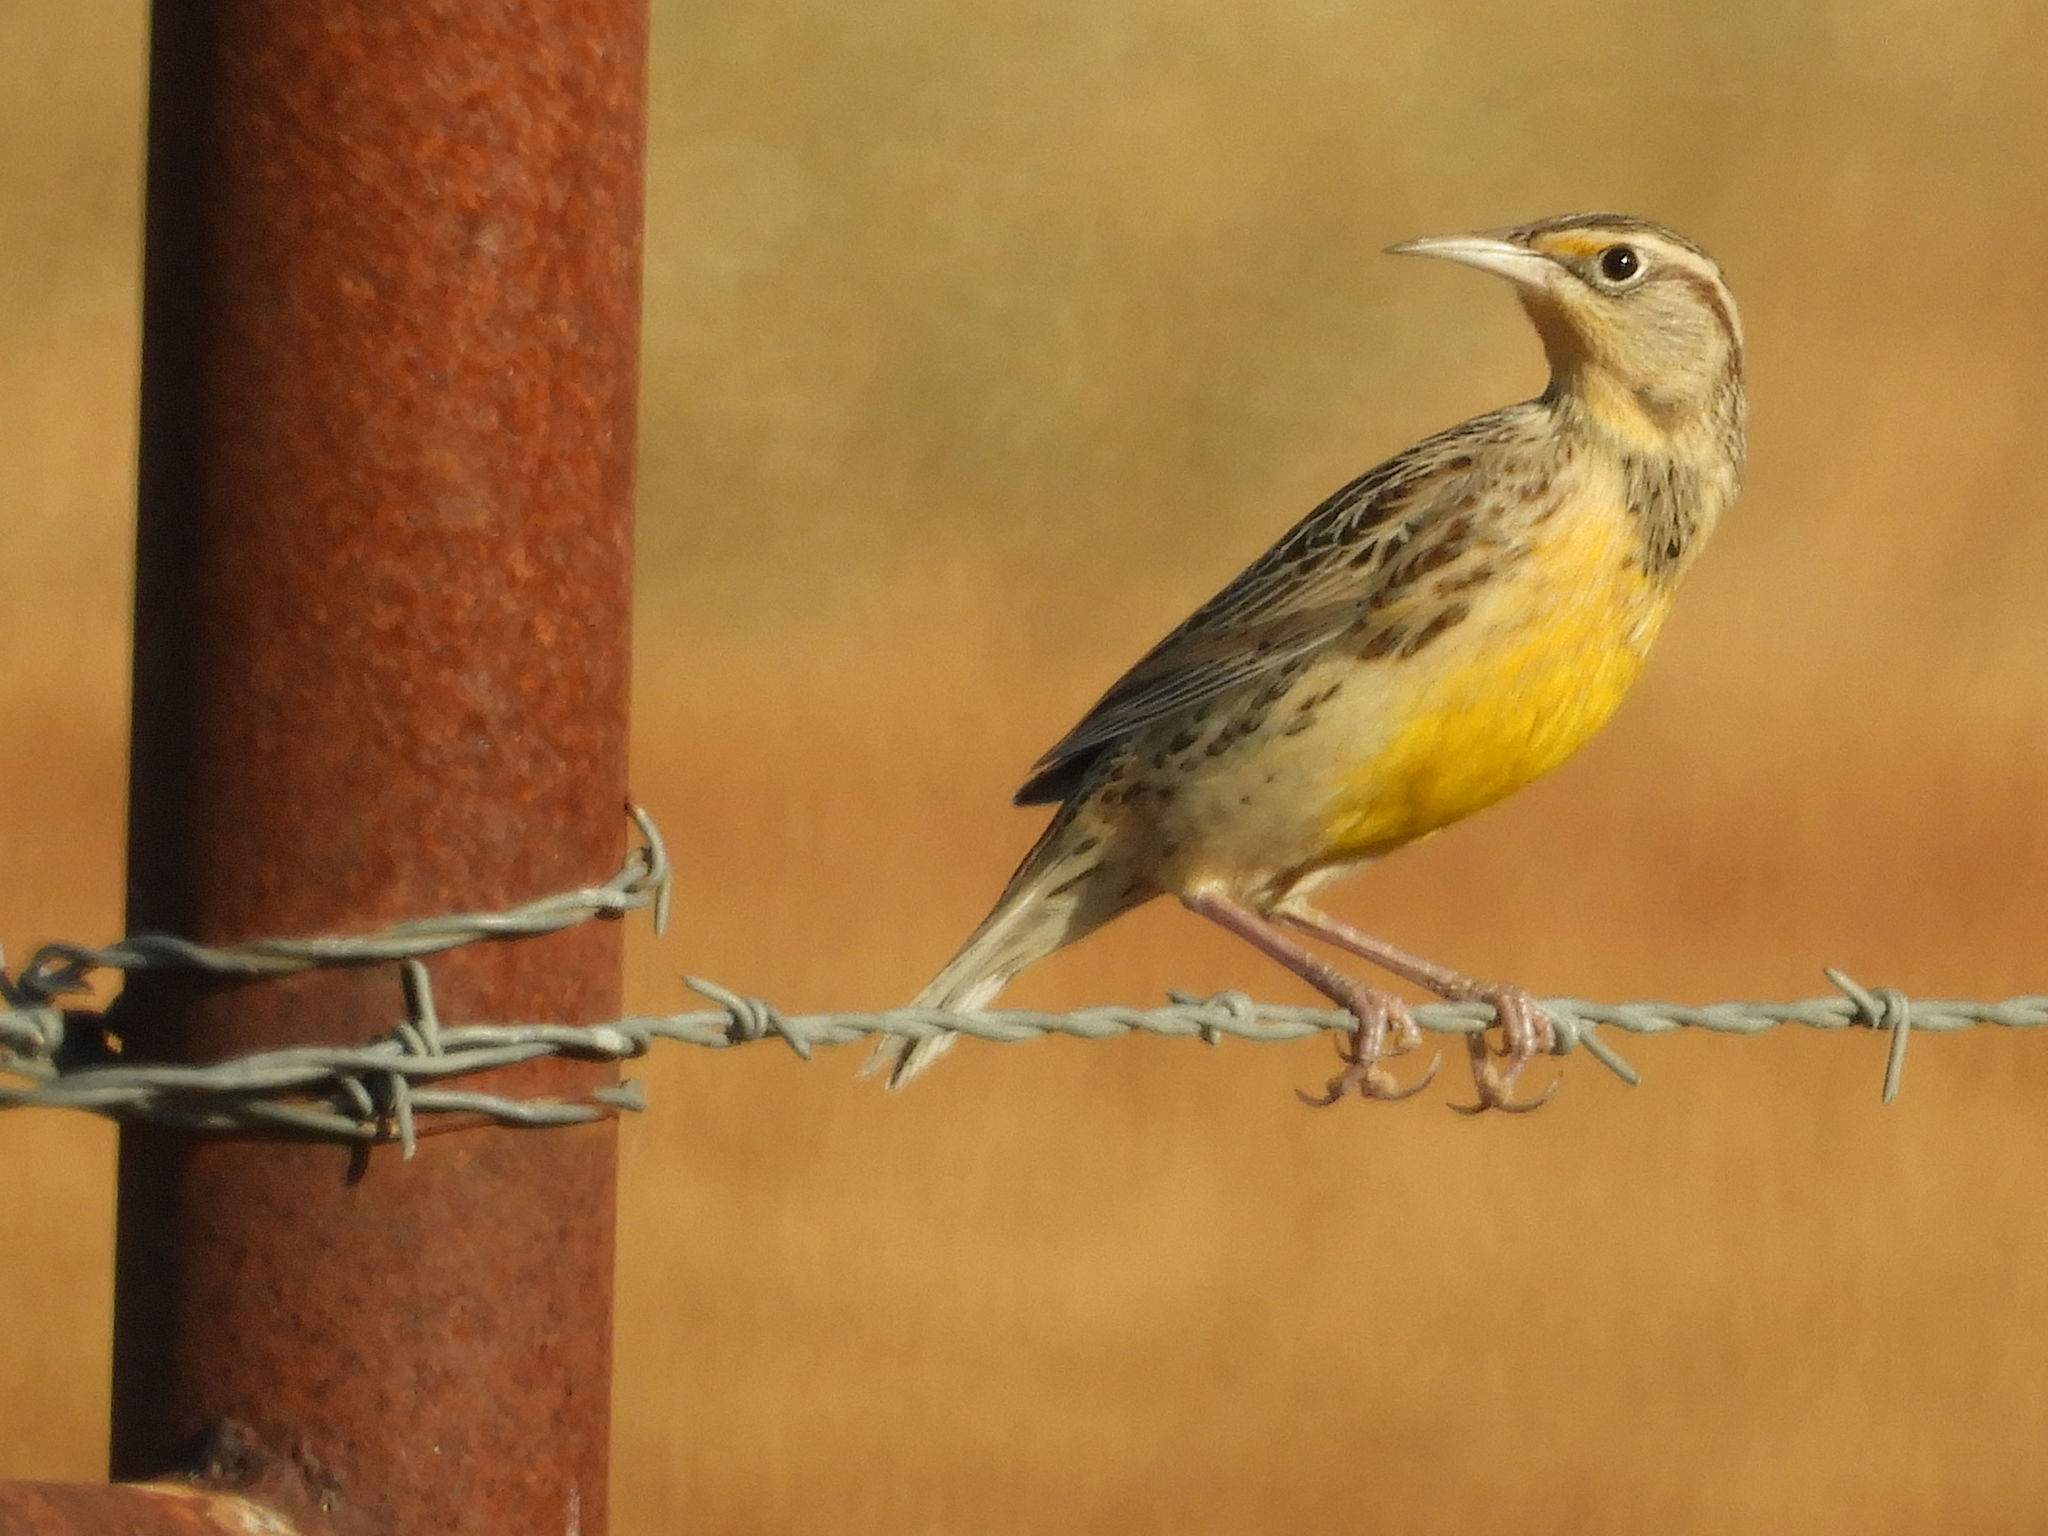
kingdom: Animalia
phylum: Chordata
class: Aves
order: Passeriformes
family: Icteridae
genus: Sturnella
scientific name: Sturnella neglecta
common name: Western meadowlark
